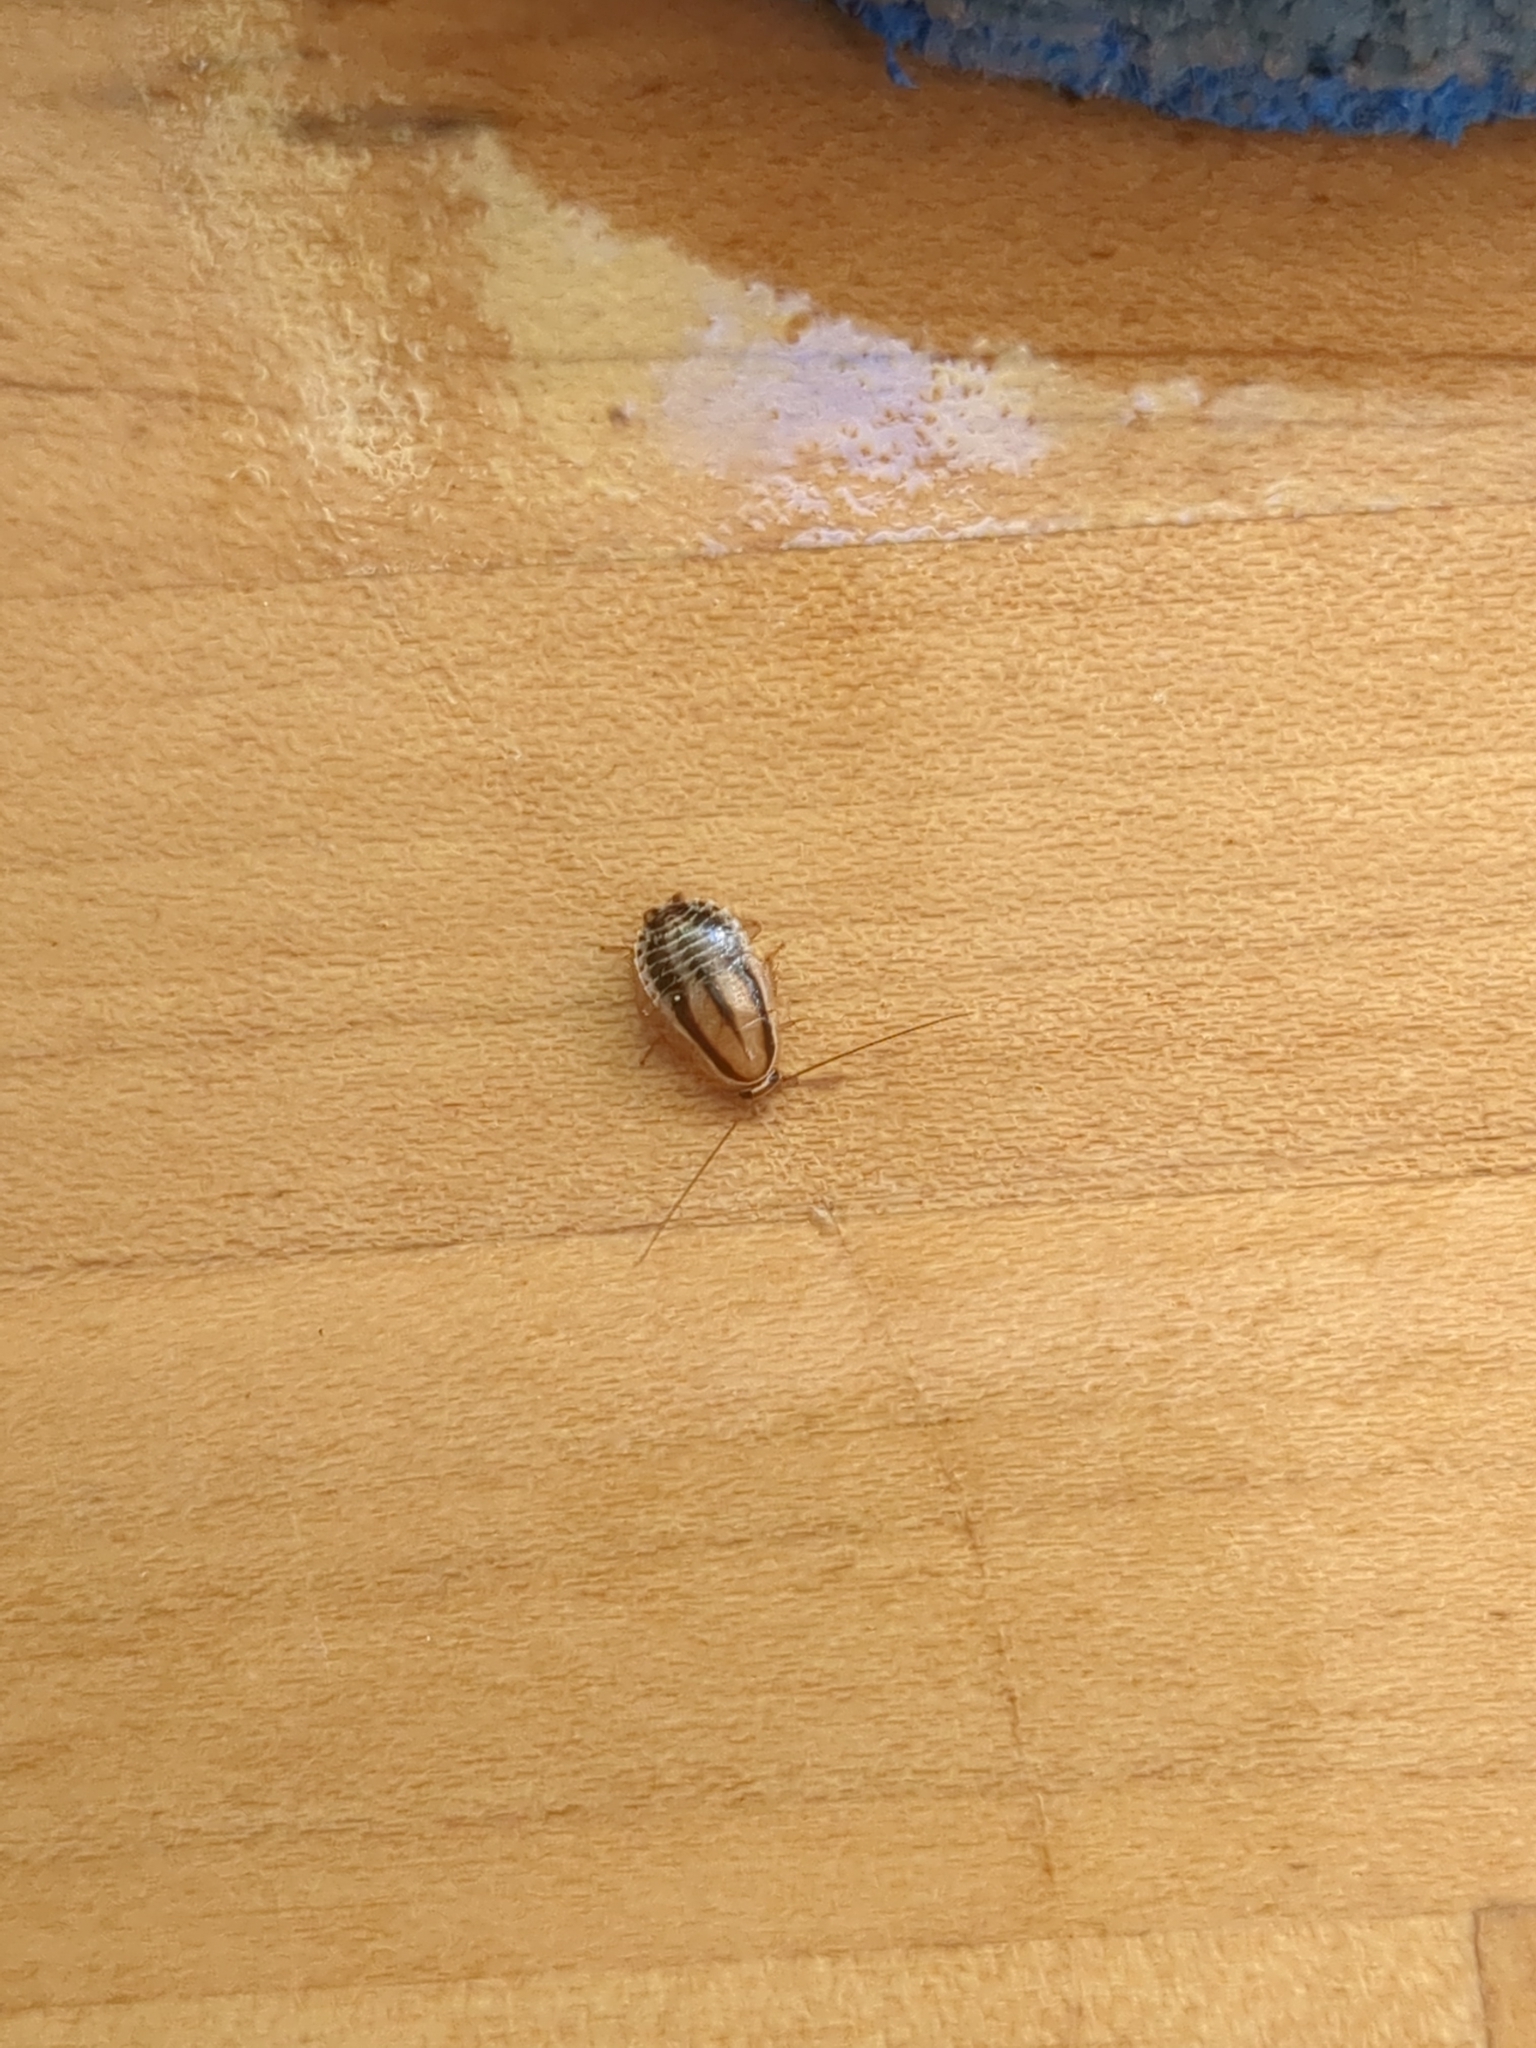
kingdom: Animalia
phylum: Arthropoda
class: Insecta
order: Blattodea
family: Ectobiidae
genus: Luridiblatta
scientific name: Luridiblatta trivittata
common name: Three-lined cockroach
